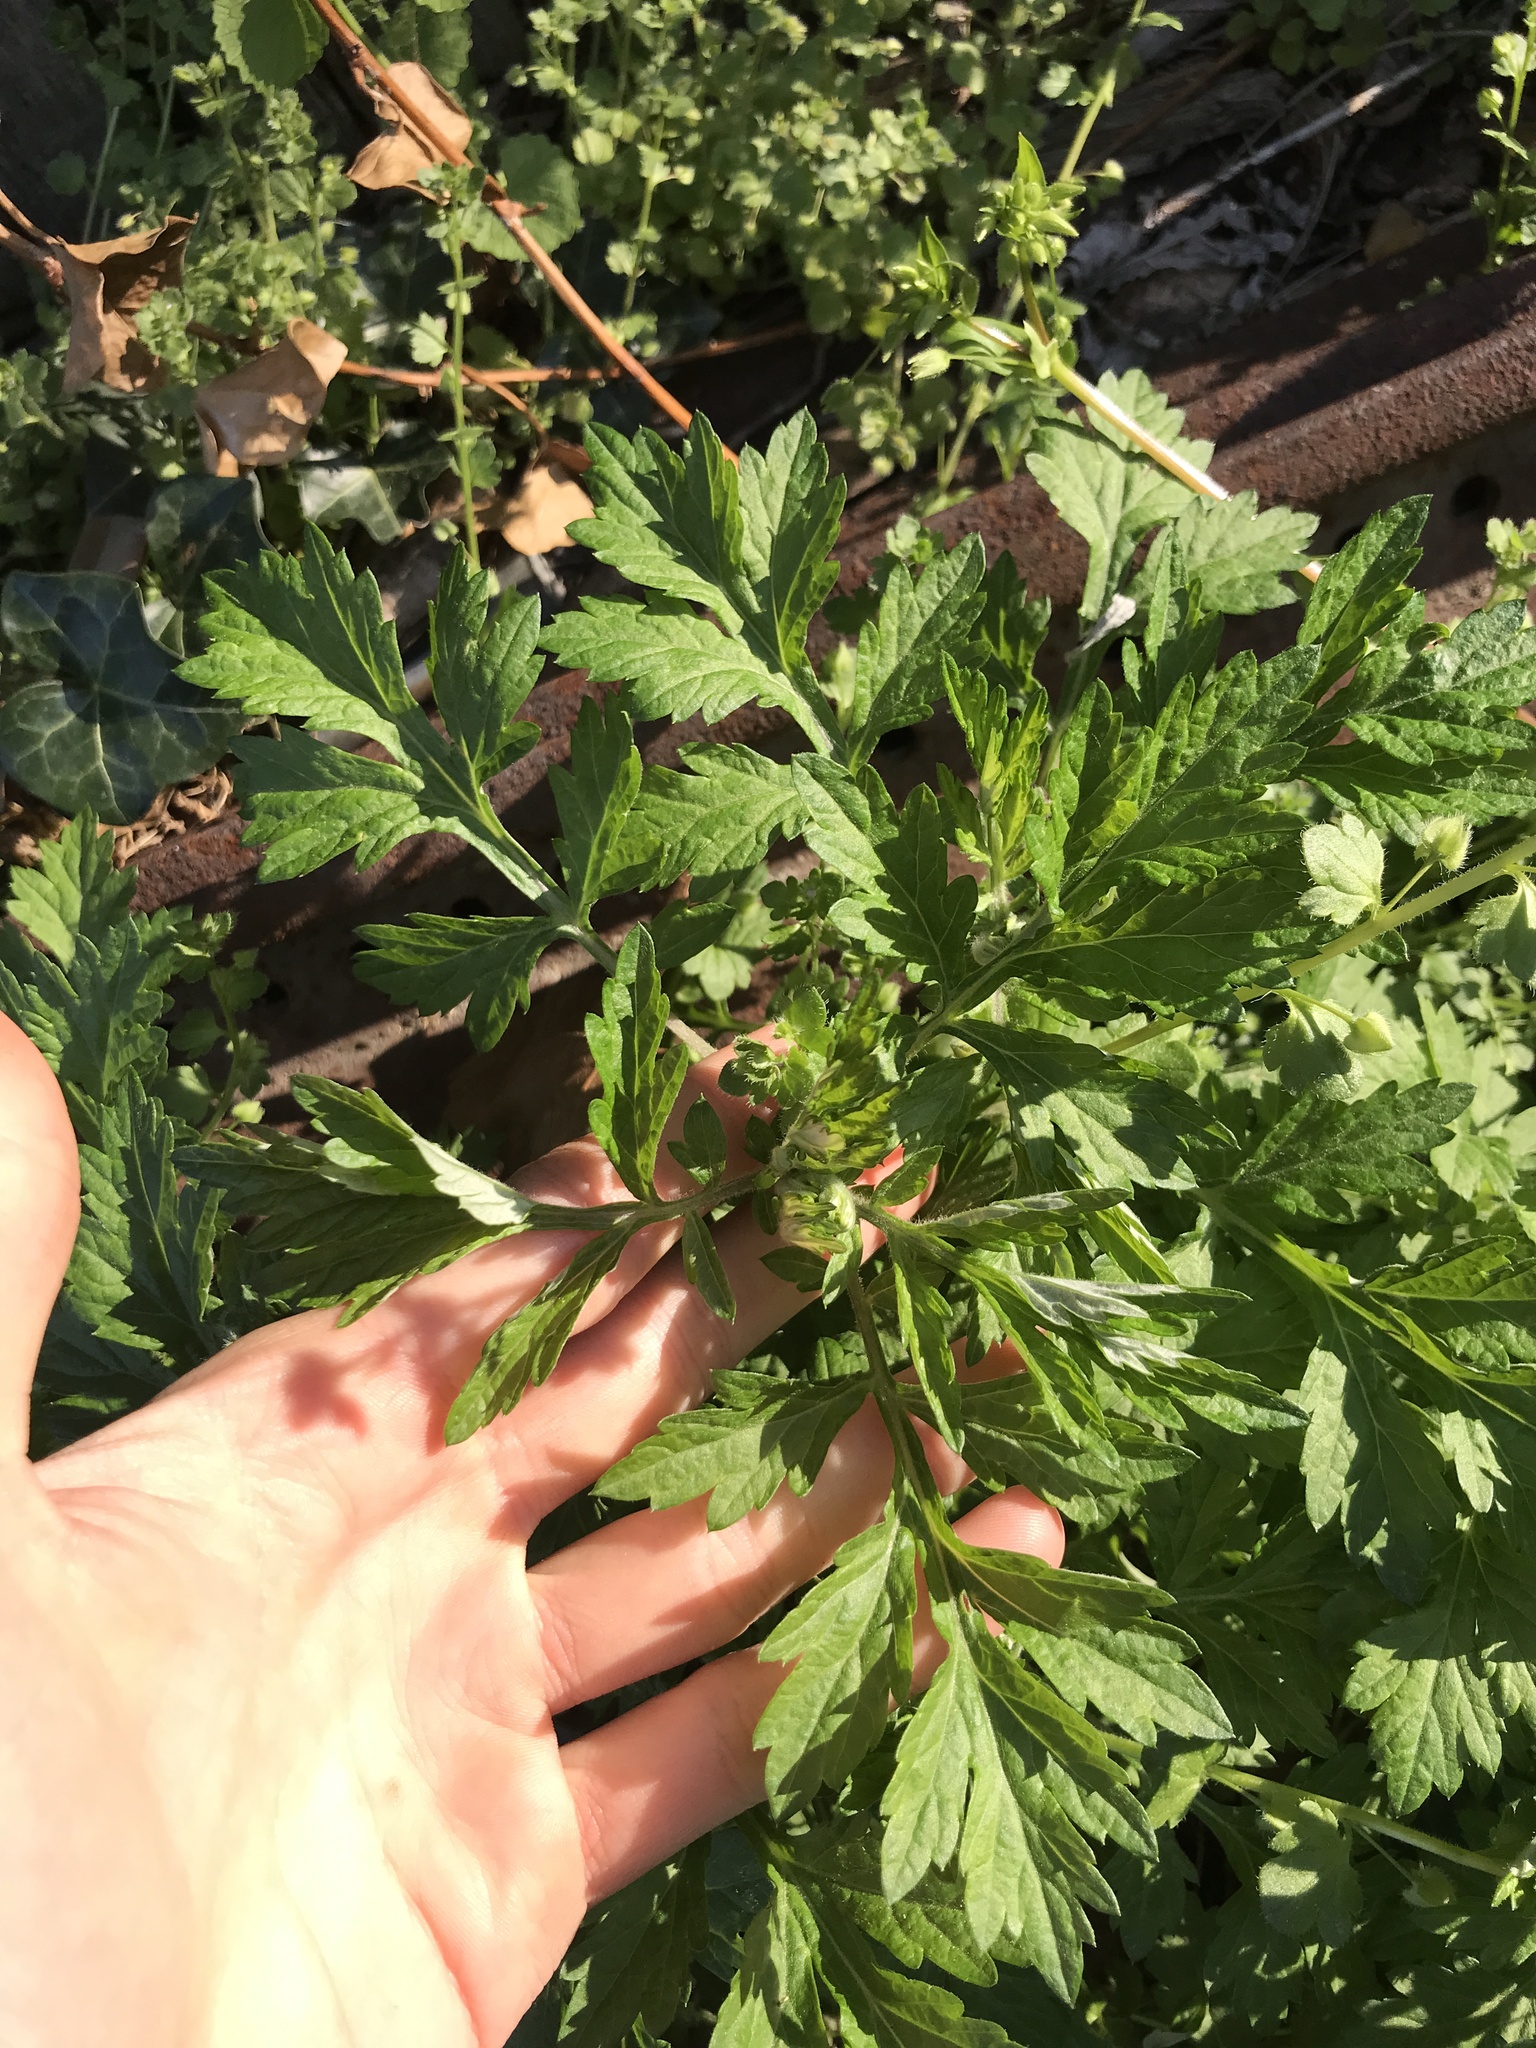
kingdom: Plantae
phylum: Tracheophyta
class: Magnoliopsida
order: Asterales
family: Asteraceae
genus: Artemisia
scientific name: Artemisia vulgaris
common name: Mugwort
